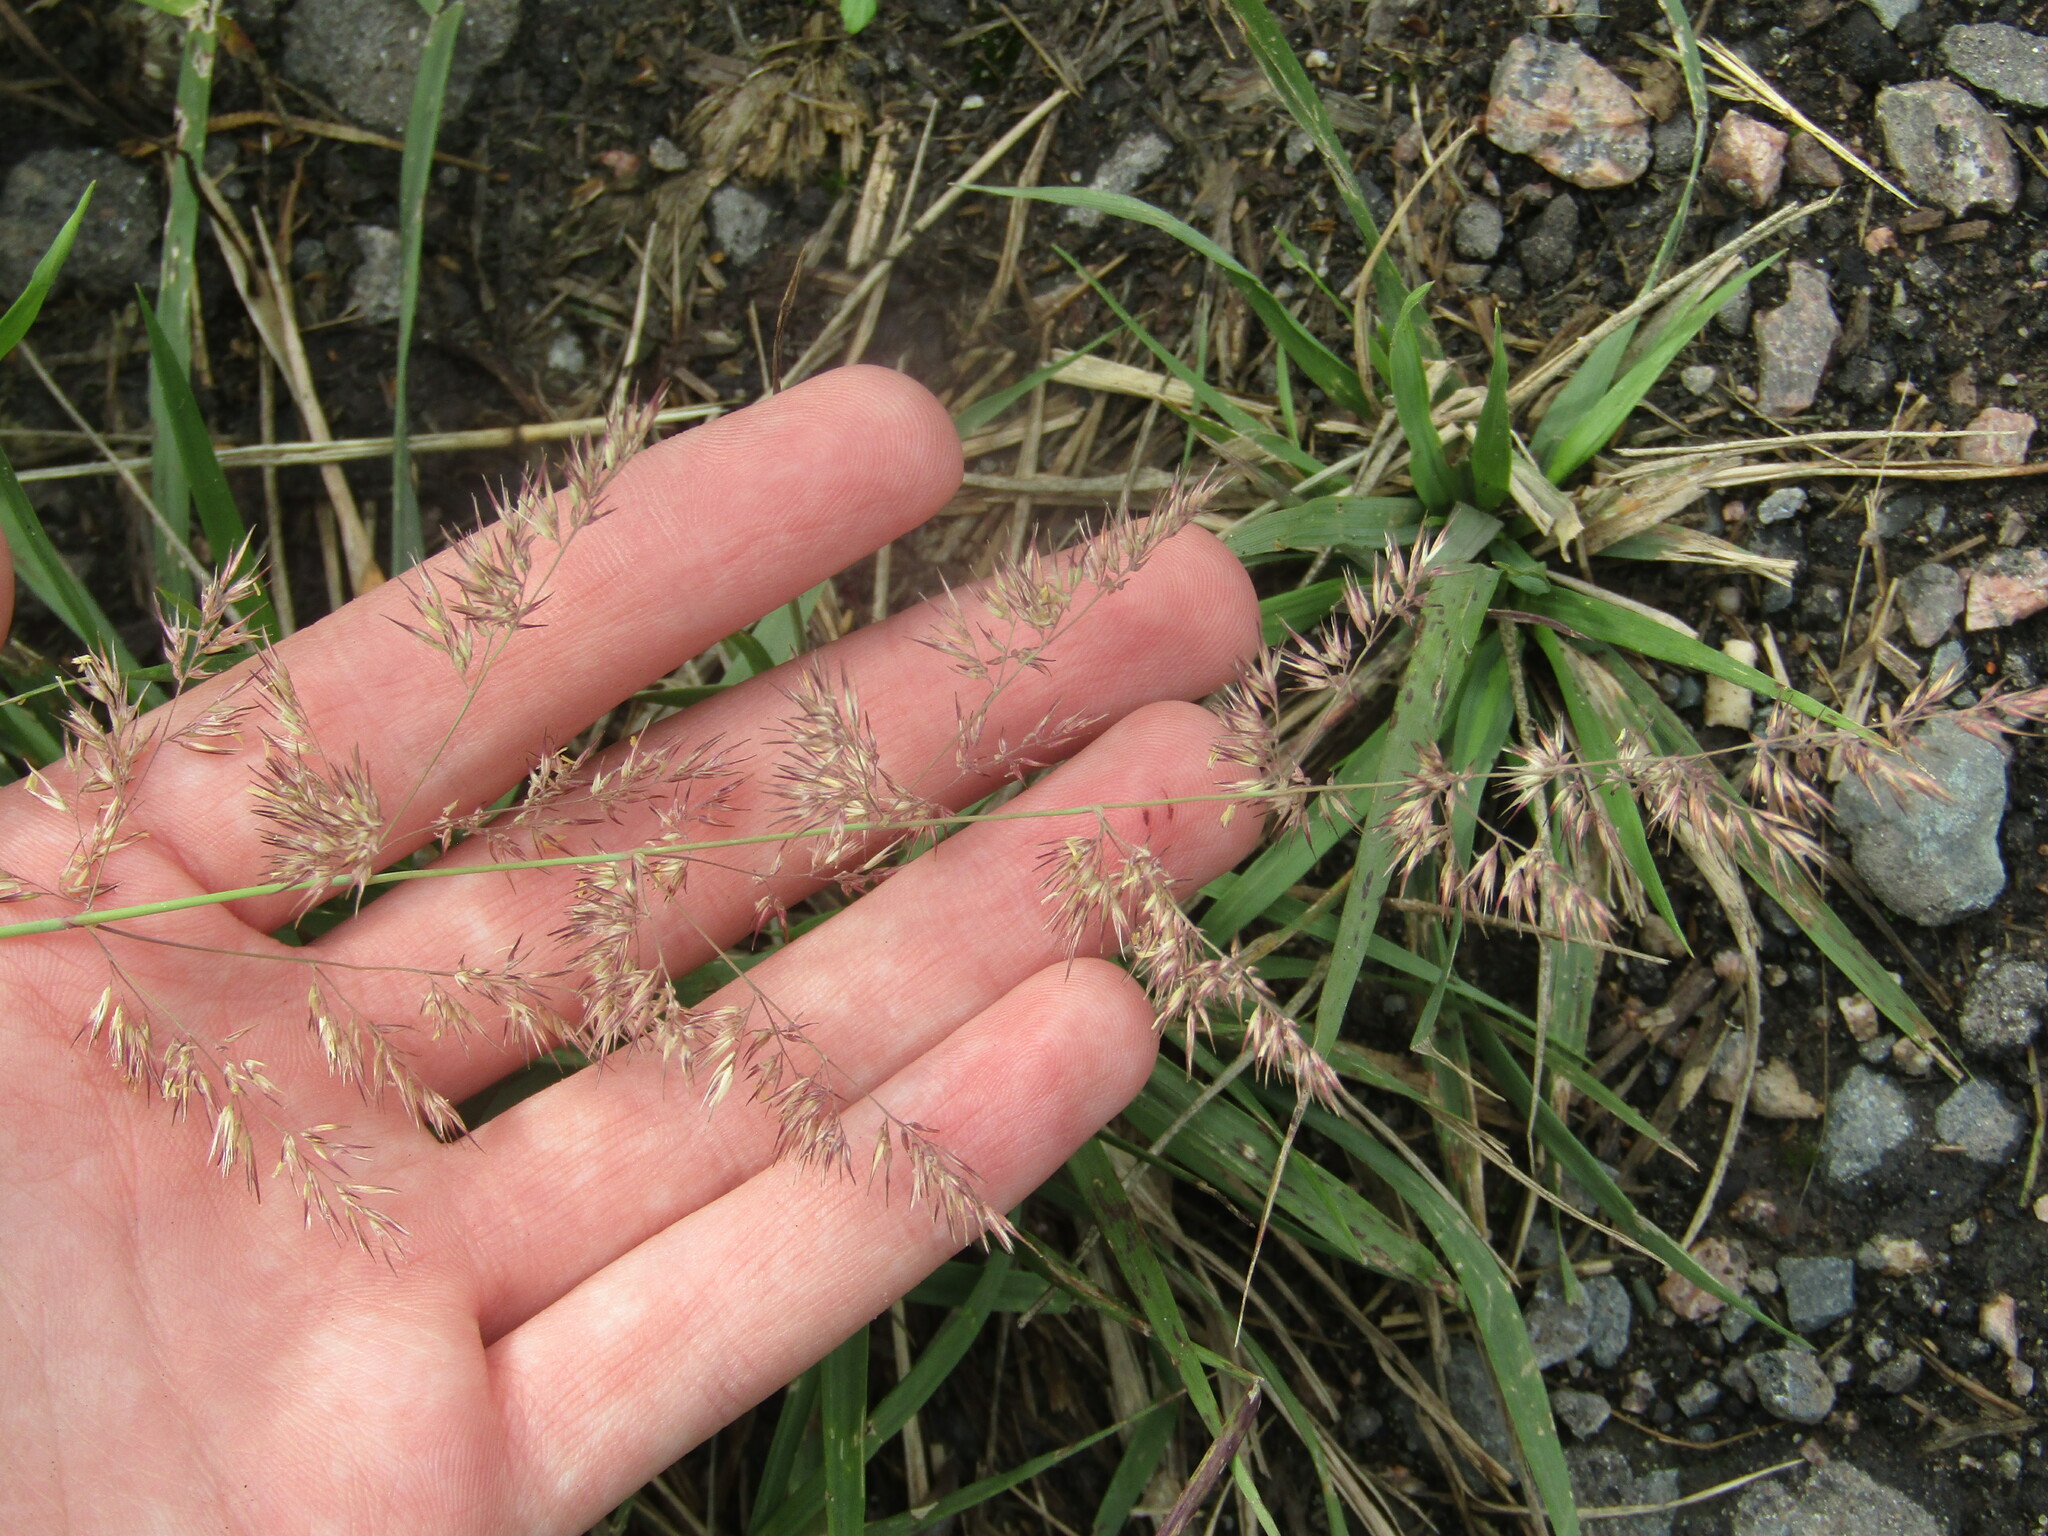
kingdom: Plantae
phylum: Tracheophyta
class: Liliopsida
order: Poales
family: Poaceae
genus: Calamagrostis
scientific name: Calamagrostis epigejos
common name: Wood small-reed
